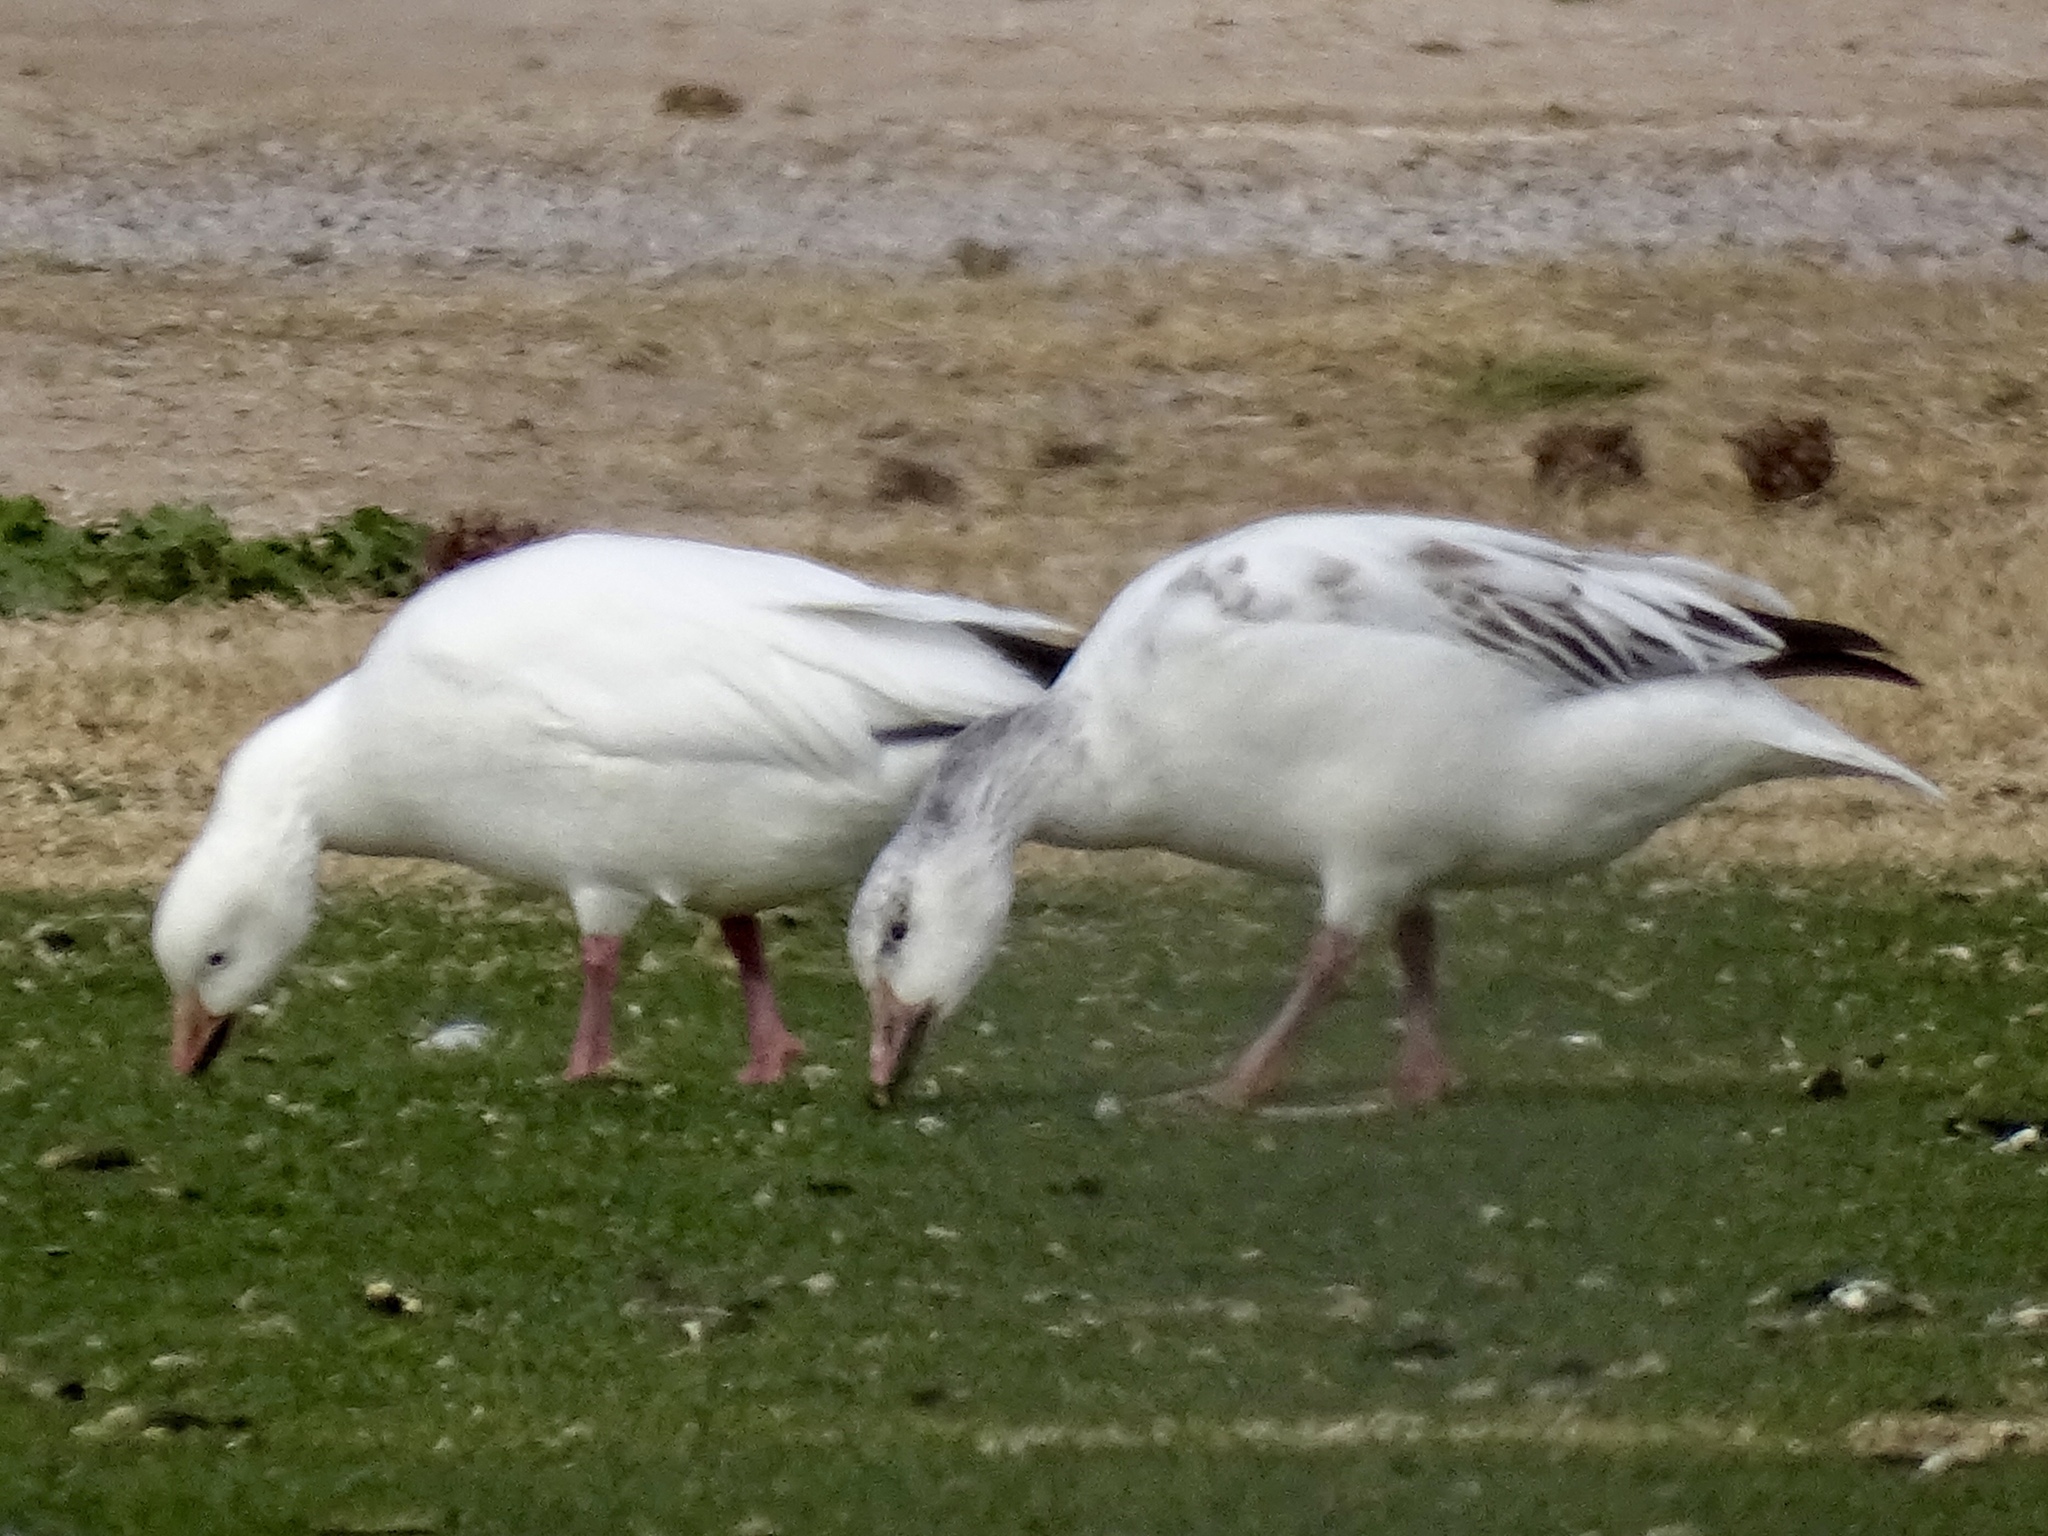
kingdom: Animalia
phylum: Chordata
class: Aves
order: Anseriformes
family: Anatidae
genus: Anser
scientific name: Anser caerulescens
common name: Snow goose
